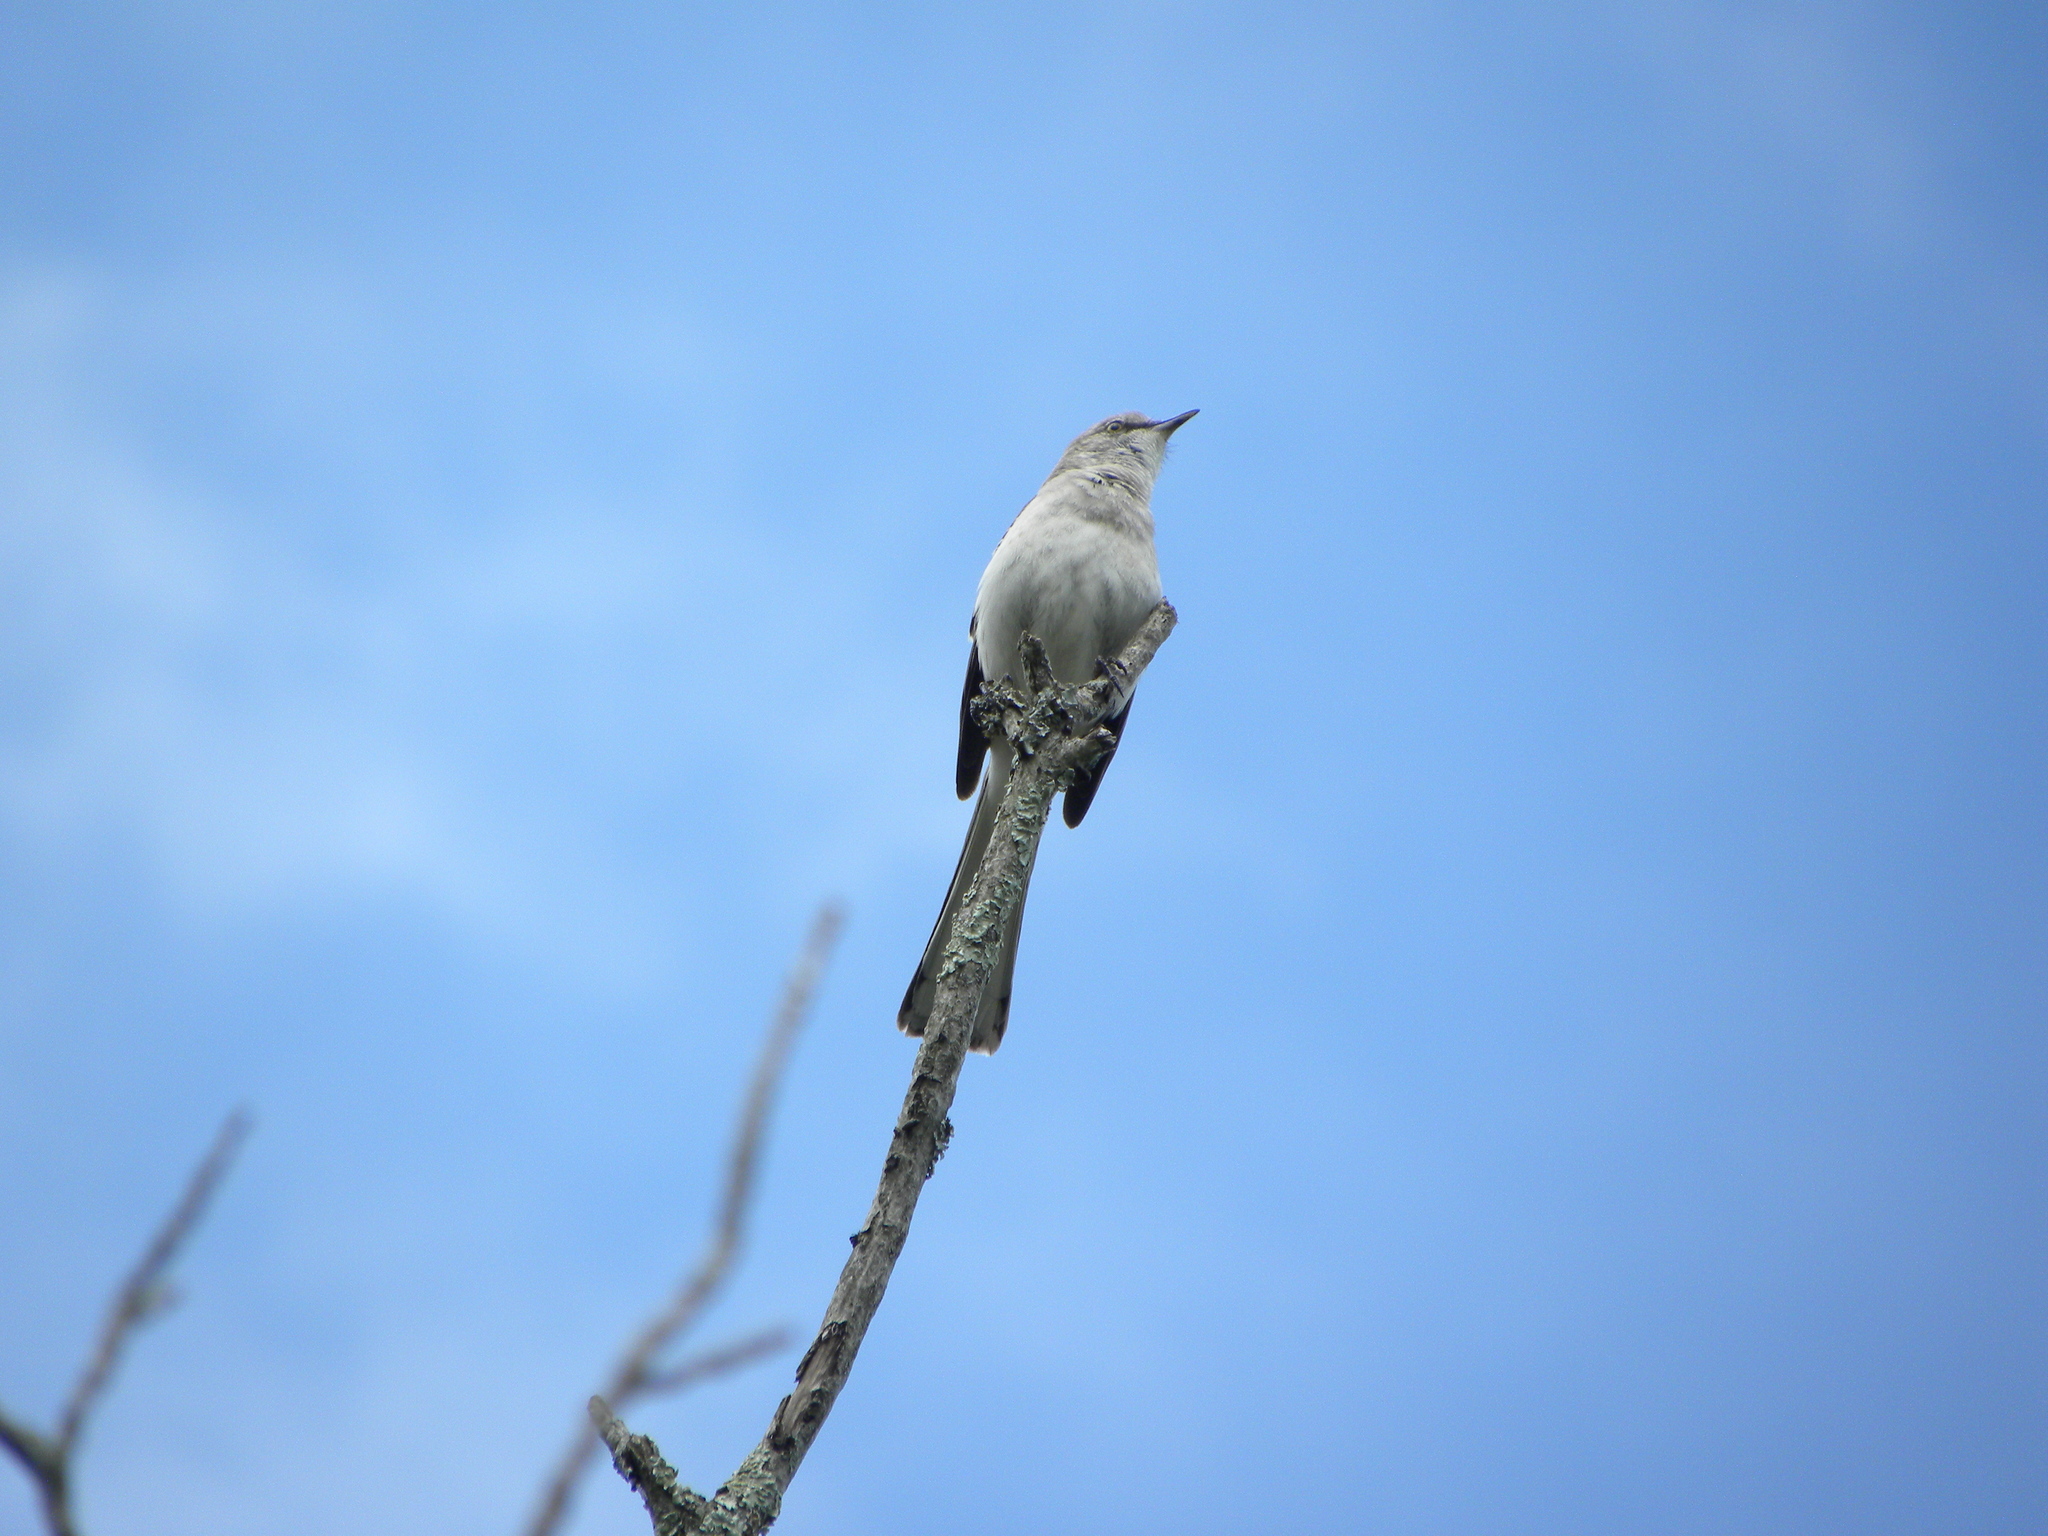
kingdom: Animalia
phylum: Chordata
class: Aves
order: Passeriformes
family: Mimidae
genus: Mimus
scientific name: Mimus polyglottos
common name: Northern mockingbird
